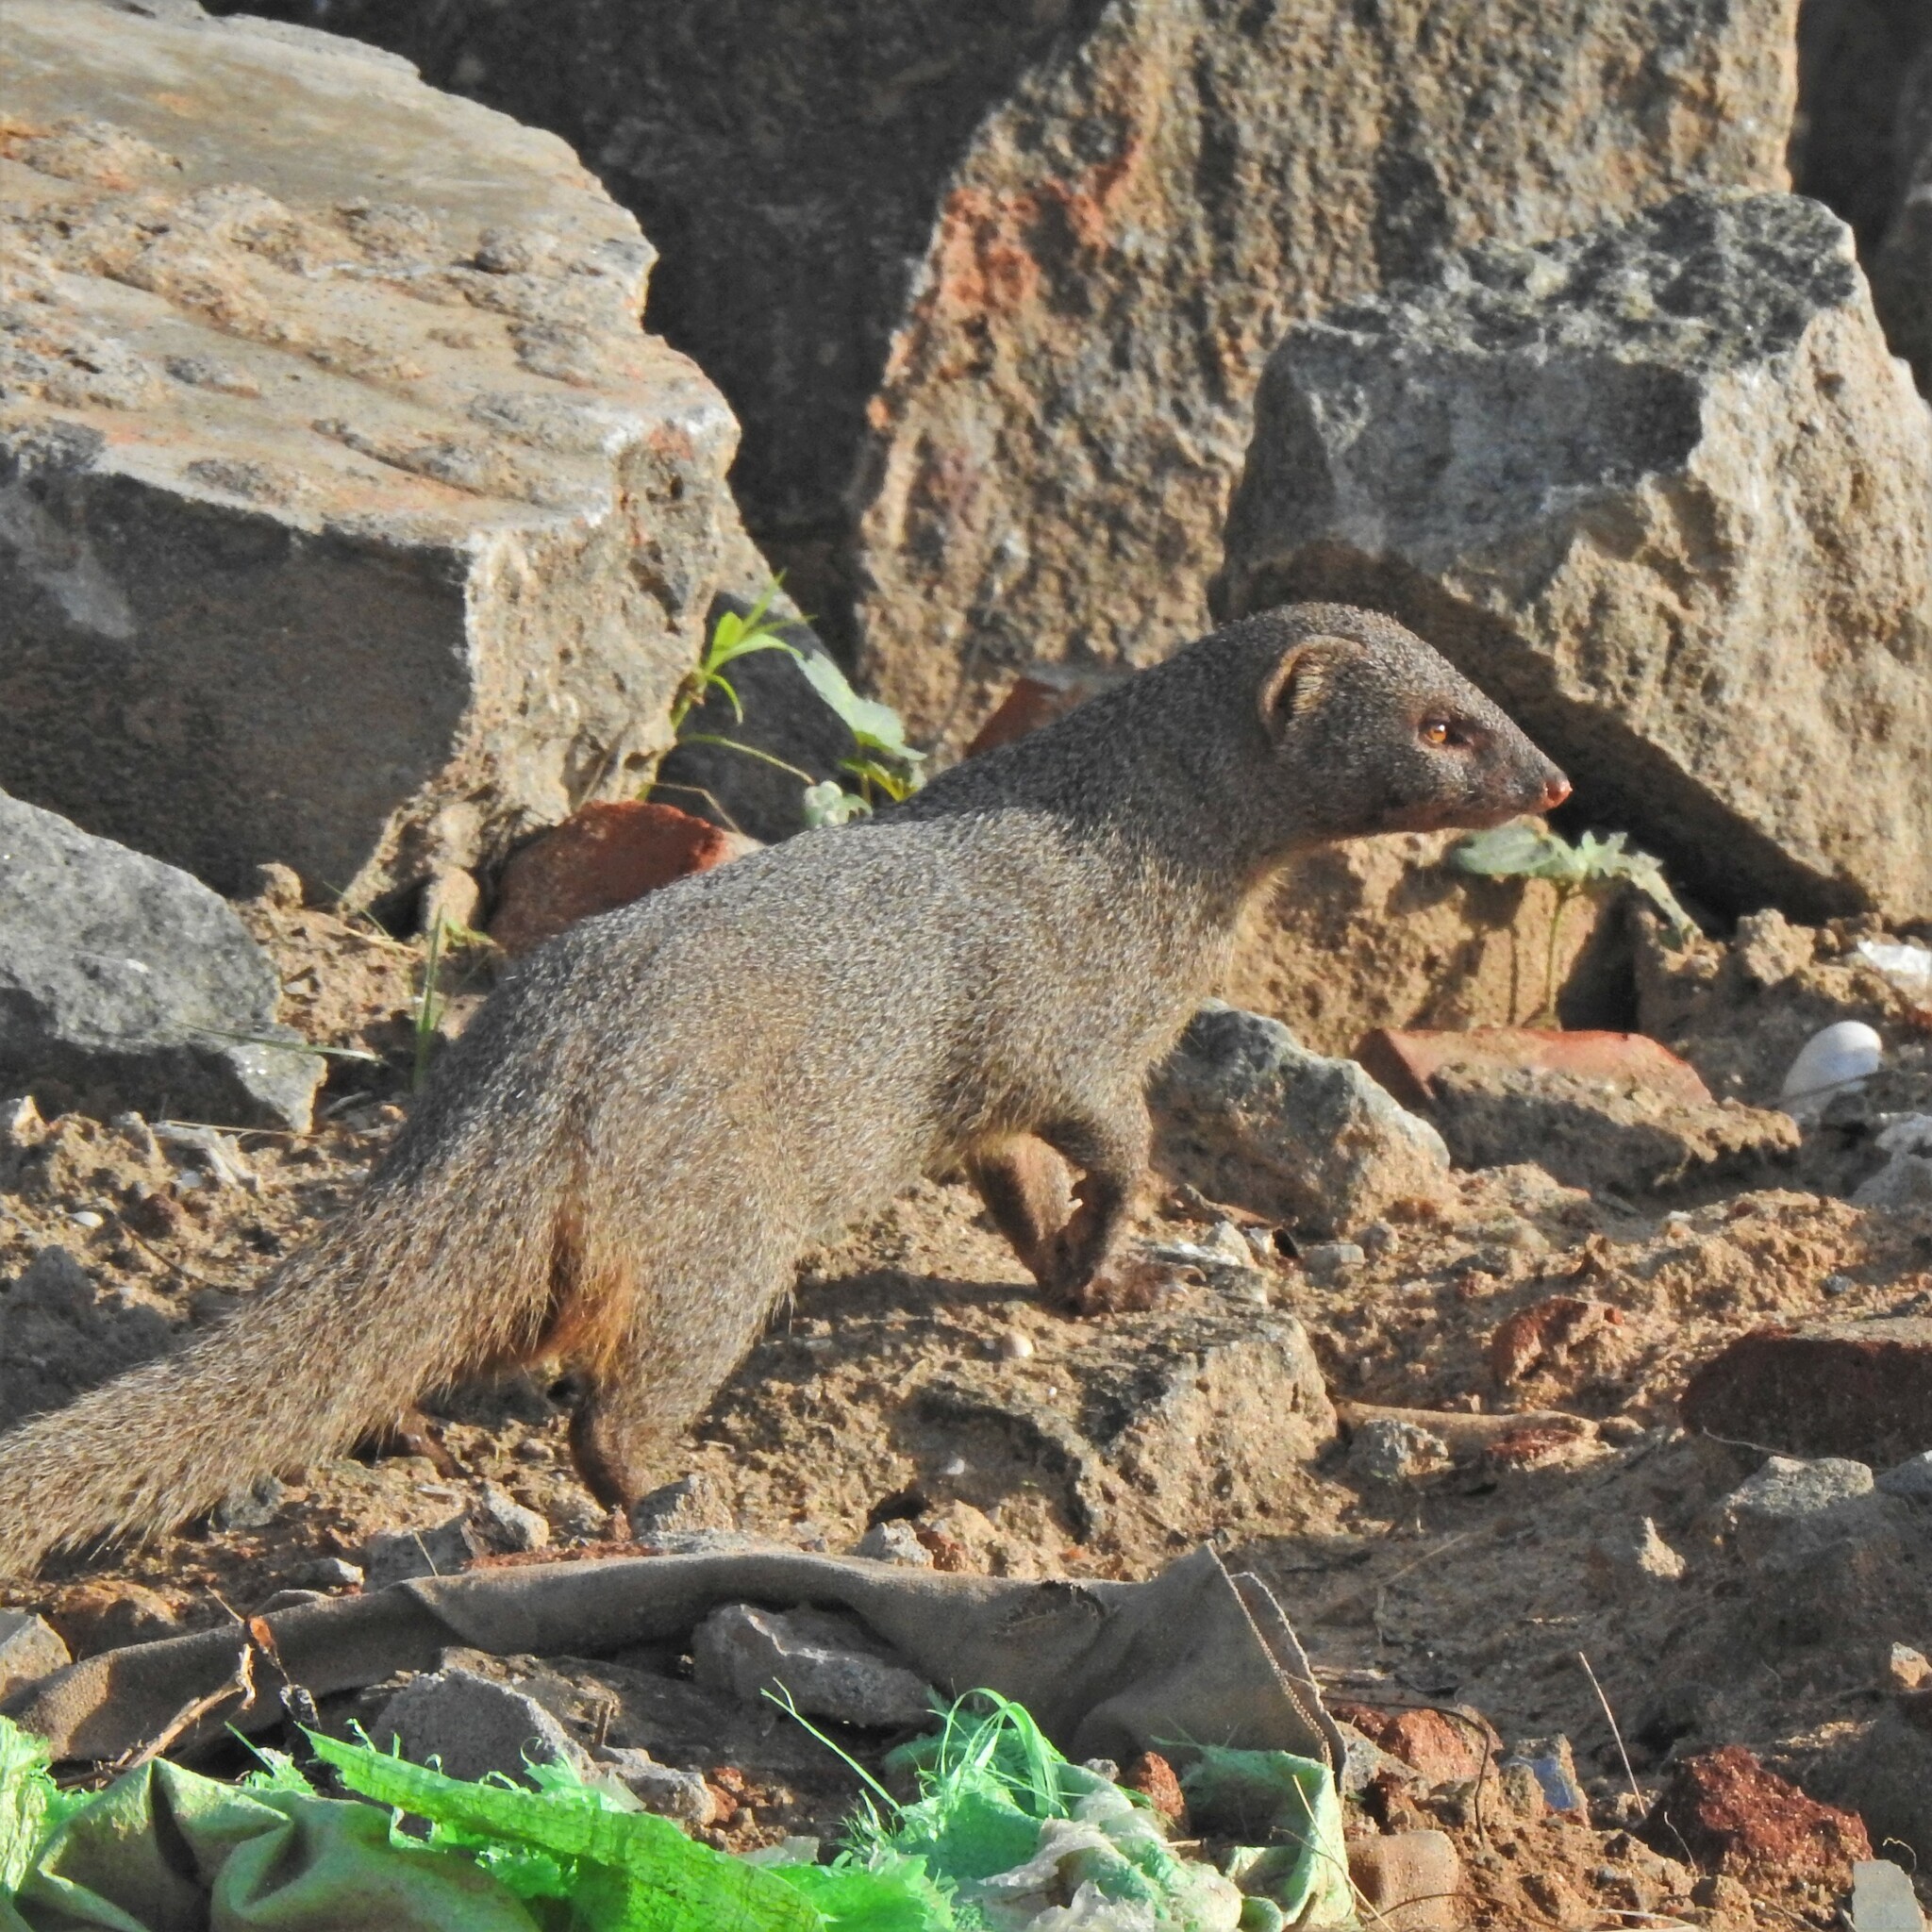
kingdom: Animalia
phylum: Chordata
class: Mammalia
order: Carnivora
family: Herpestidae
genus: Herpestes
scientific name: Herpestes edwardsi
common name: Indian gray mongoose
